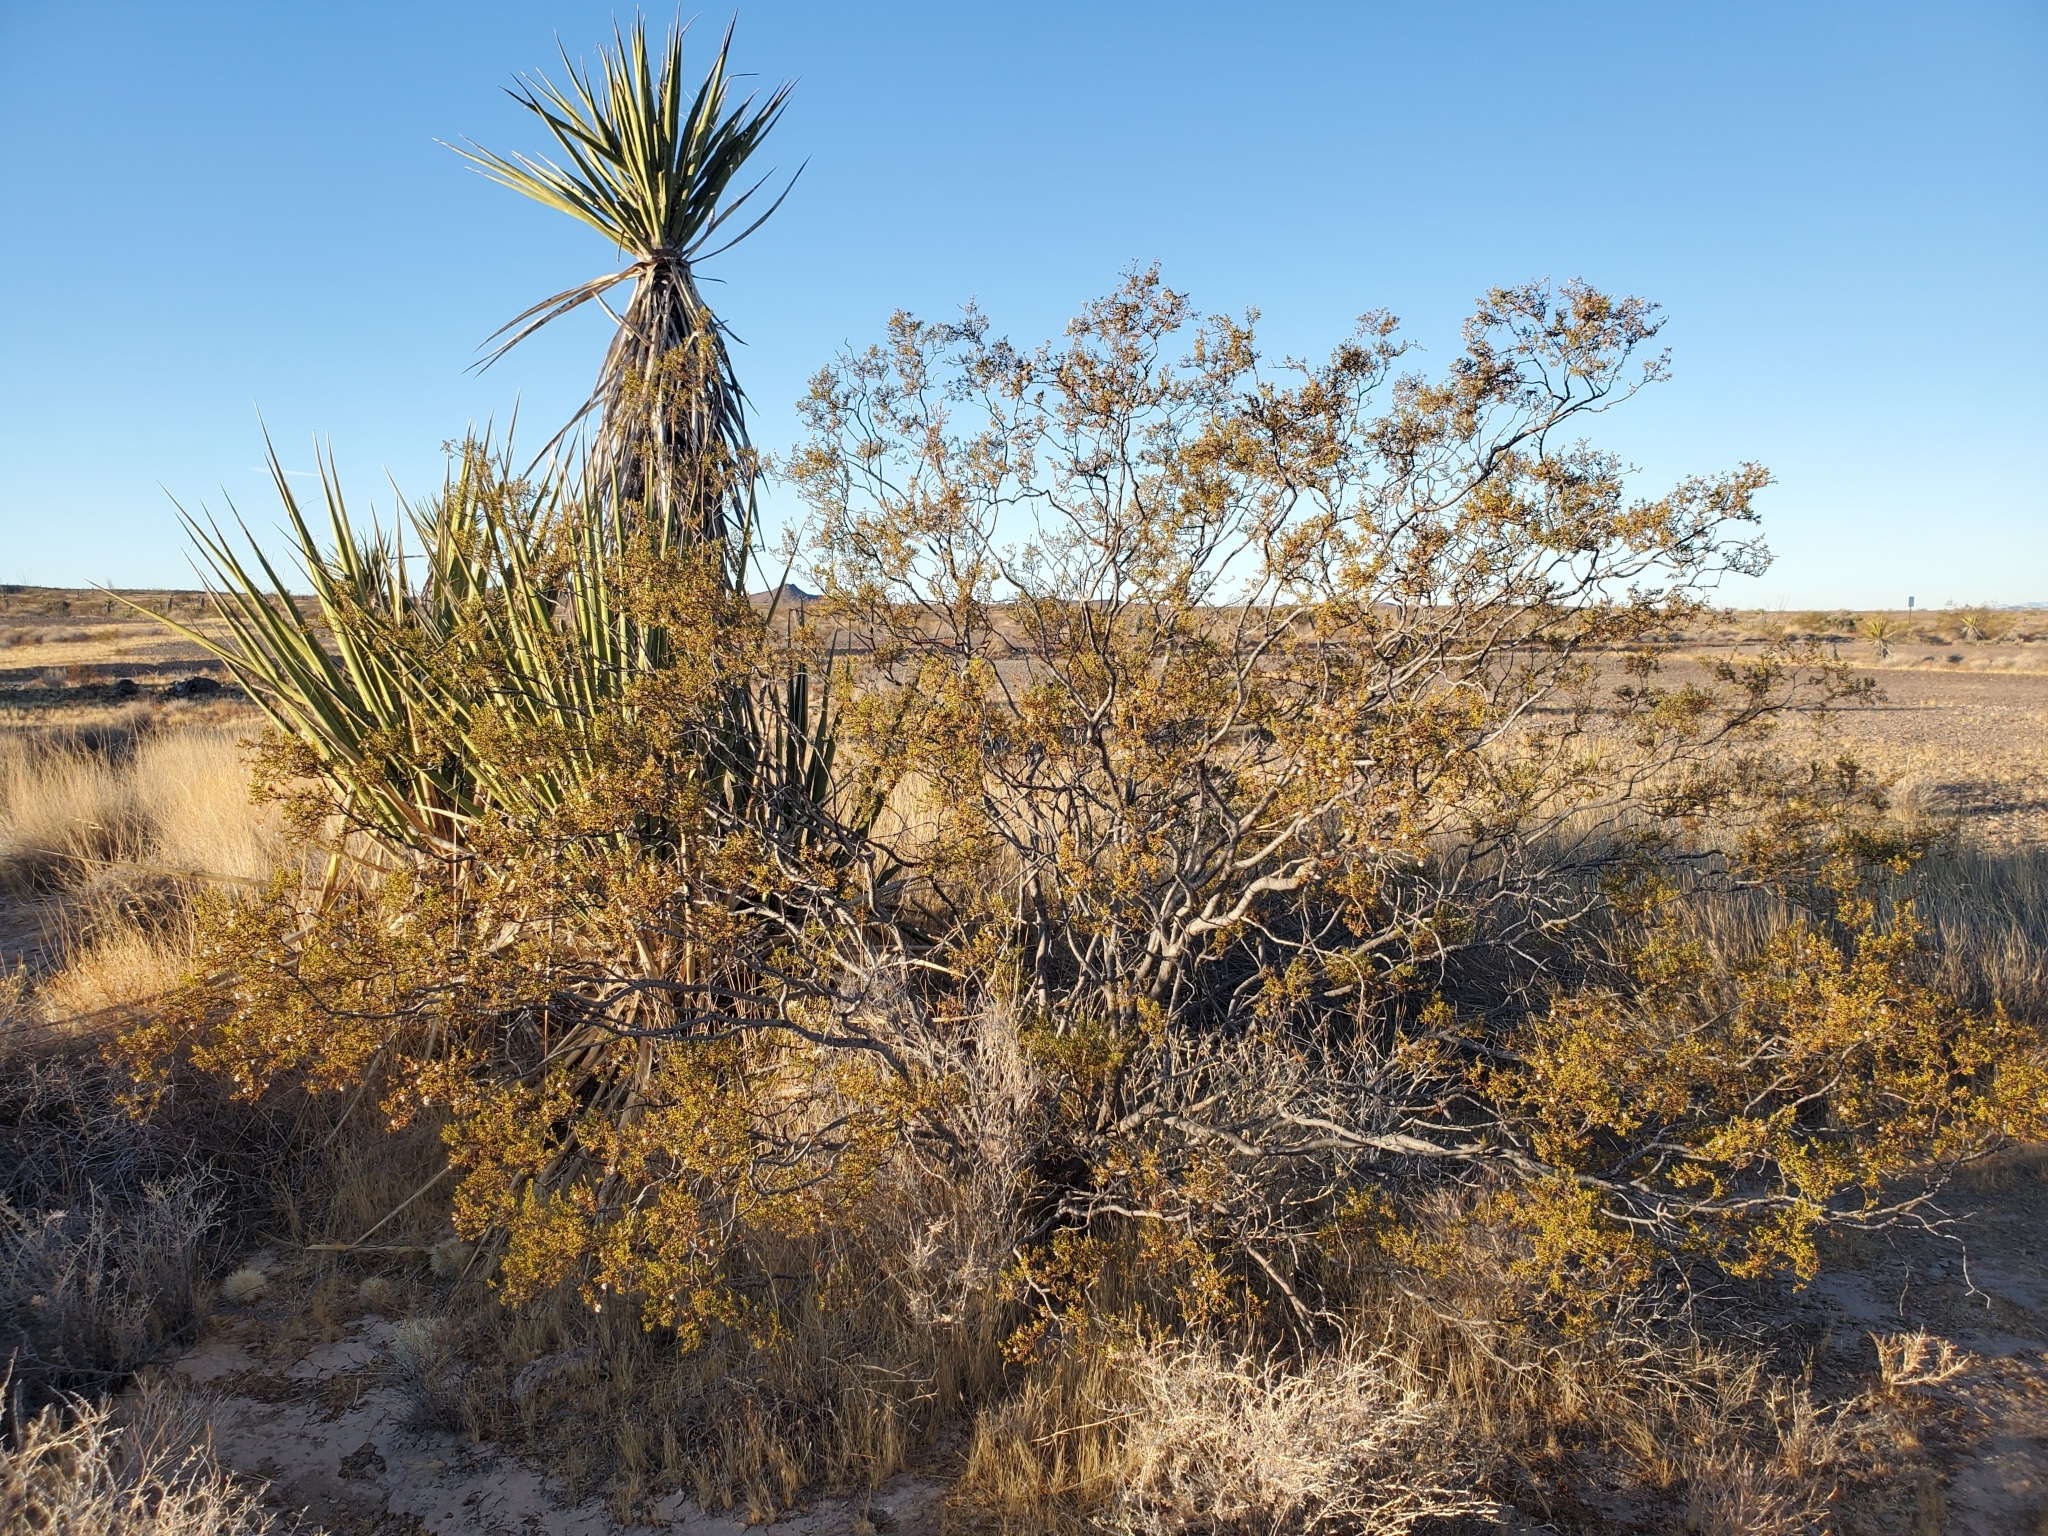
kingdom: Plantae
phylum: Tracheophyta
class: Magnoliopsida
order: Zygophyllales
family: Zygophyllaceae
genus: Larrea
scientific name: Larrea tridentata
